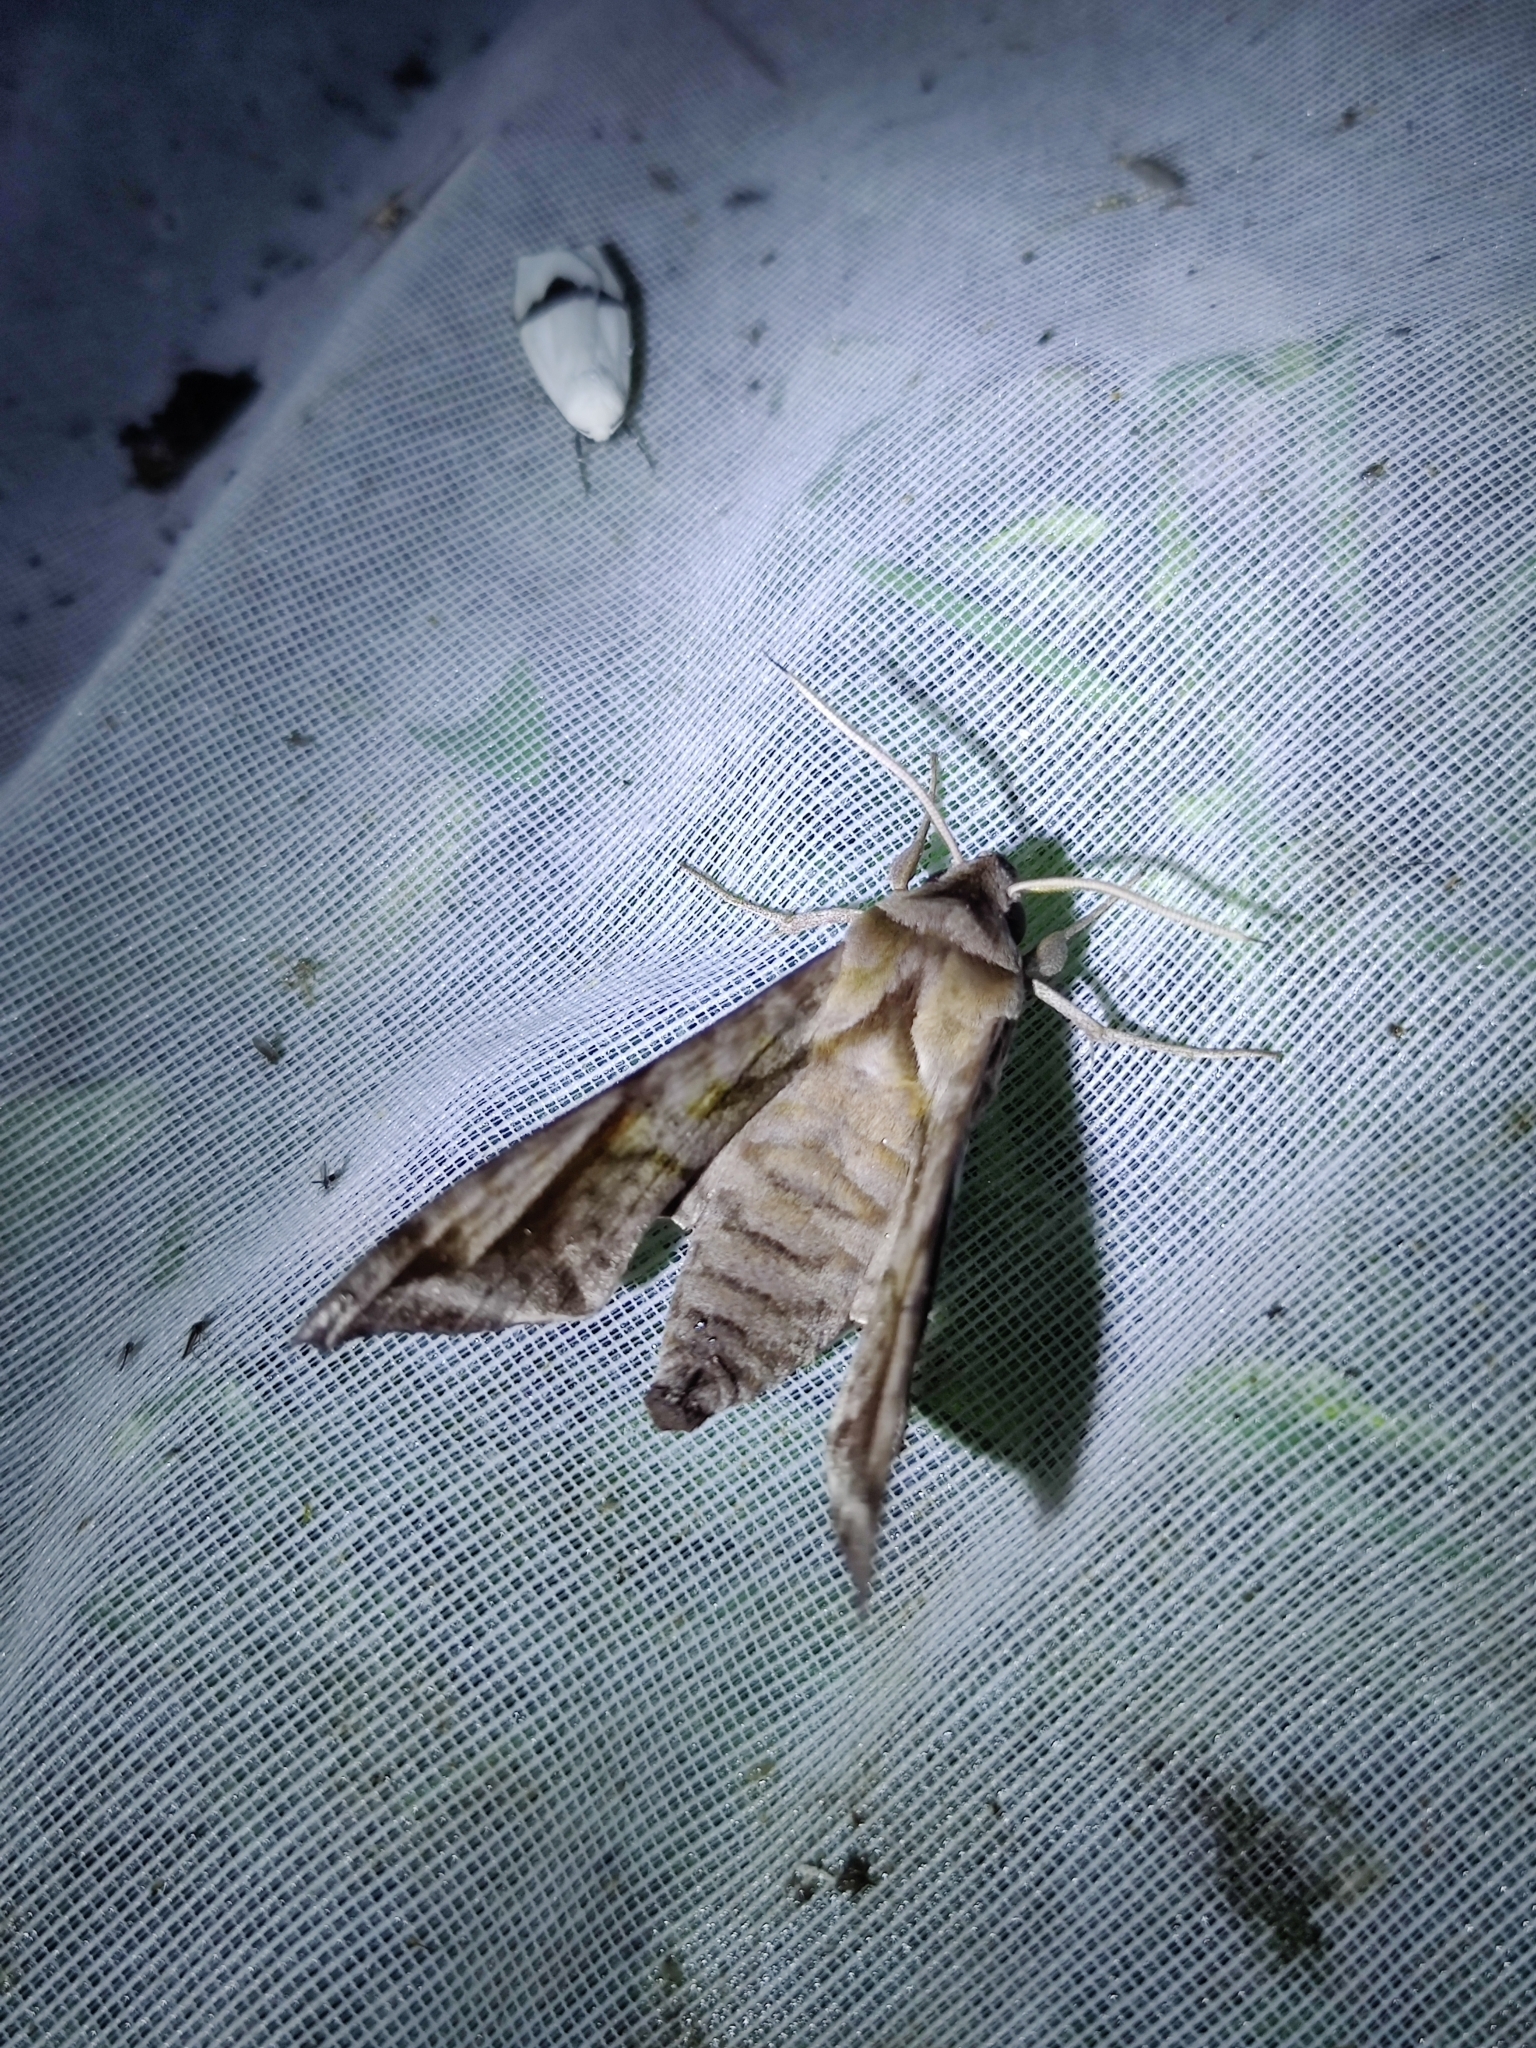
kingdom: Animalia
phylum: Arthropoda
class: Insecta
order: Lepidoptera
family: Sphingidae
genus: Acosmeryx
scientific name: Acosmeryx naga
